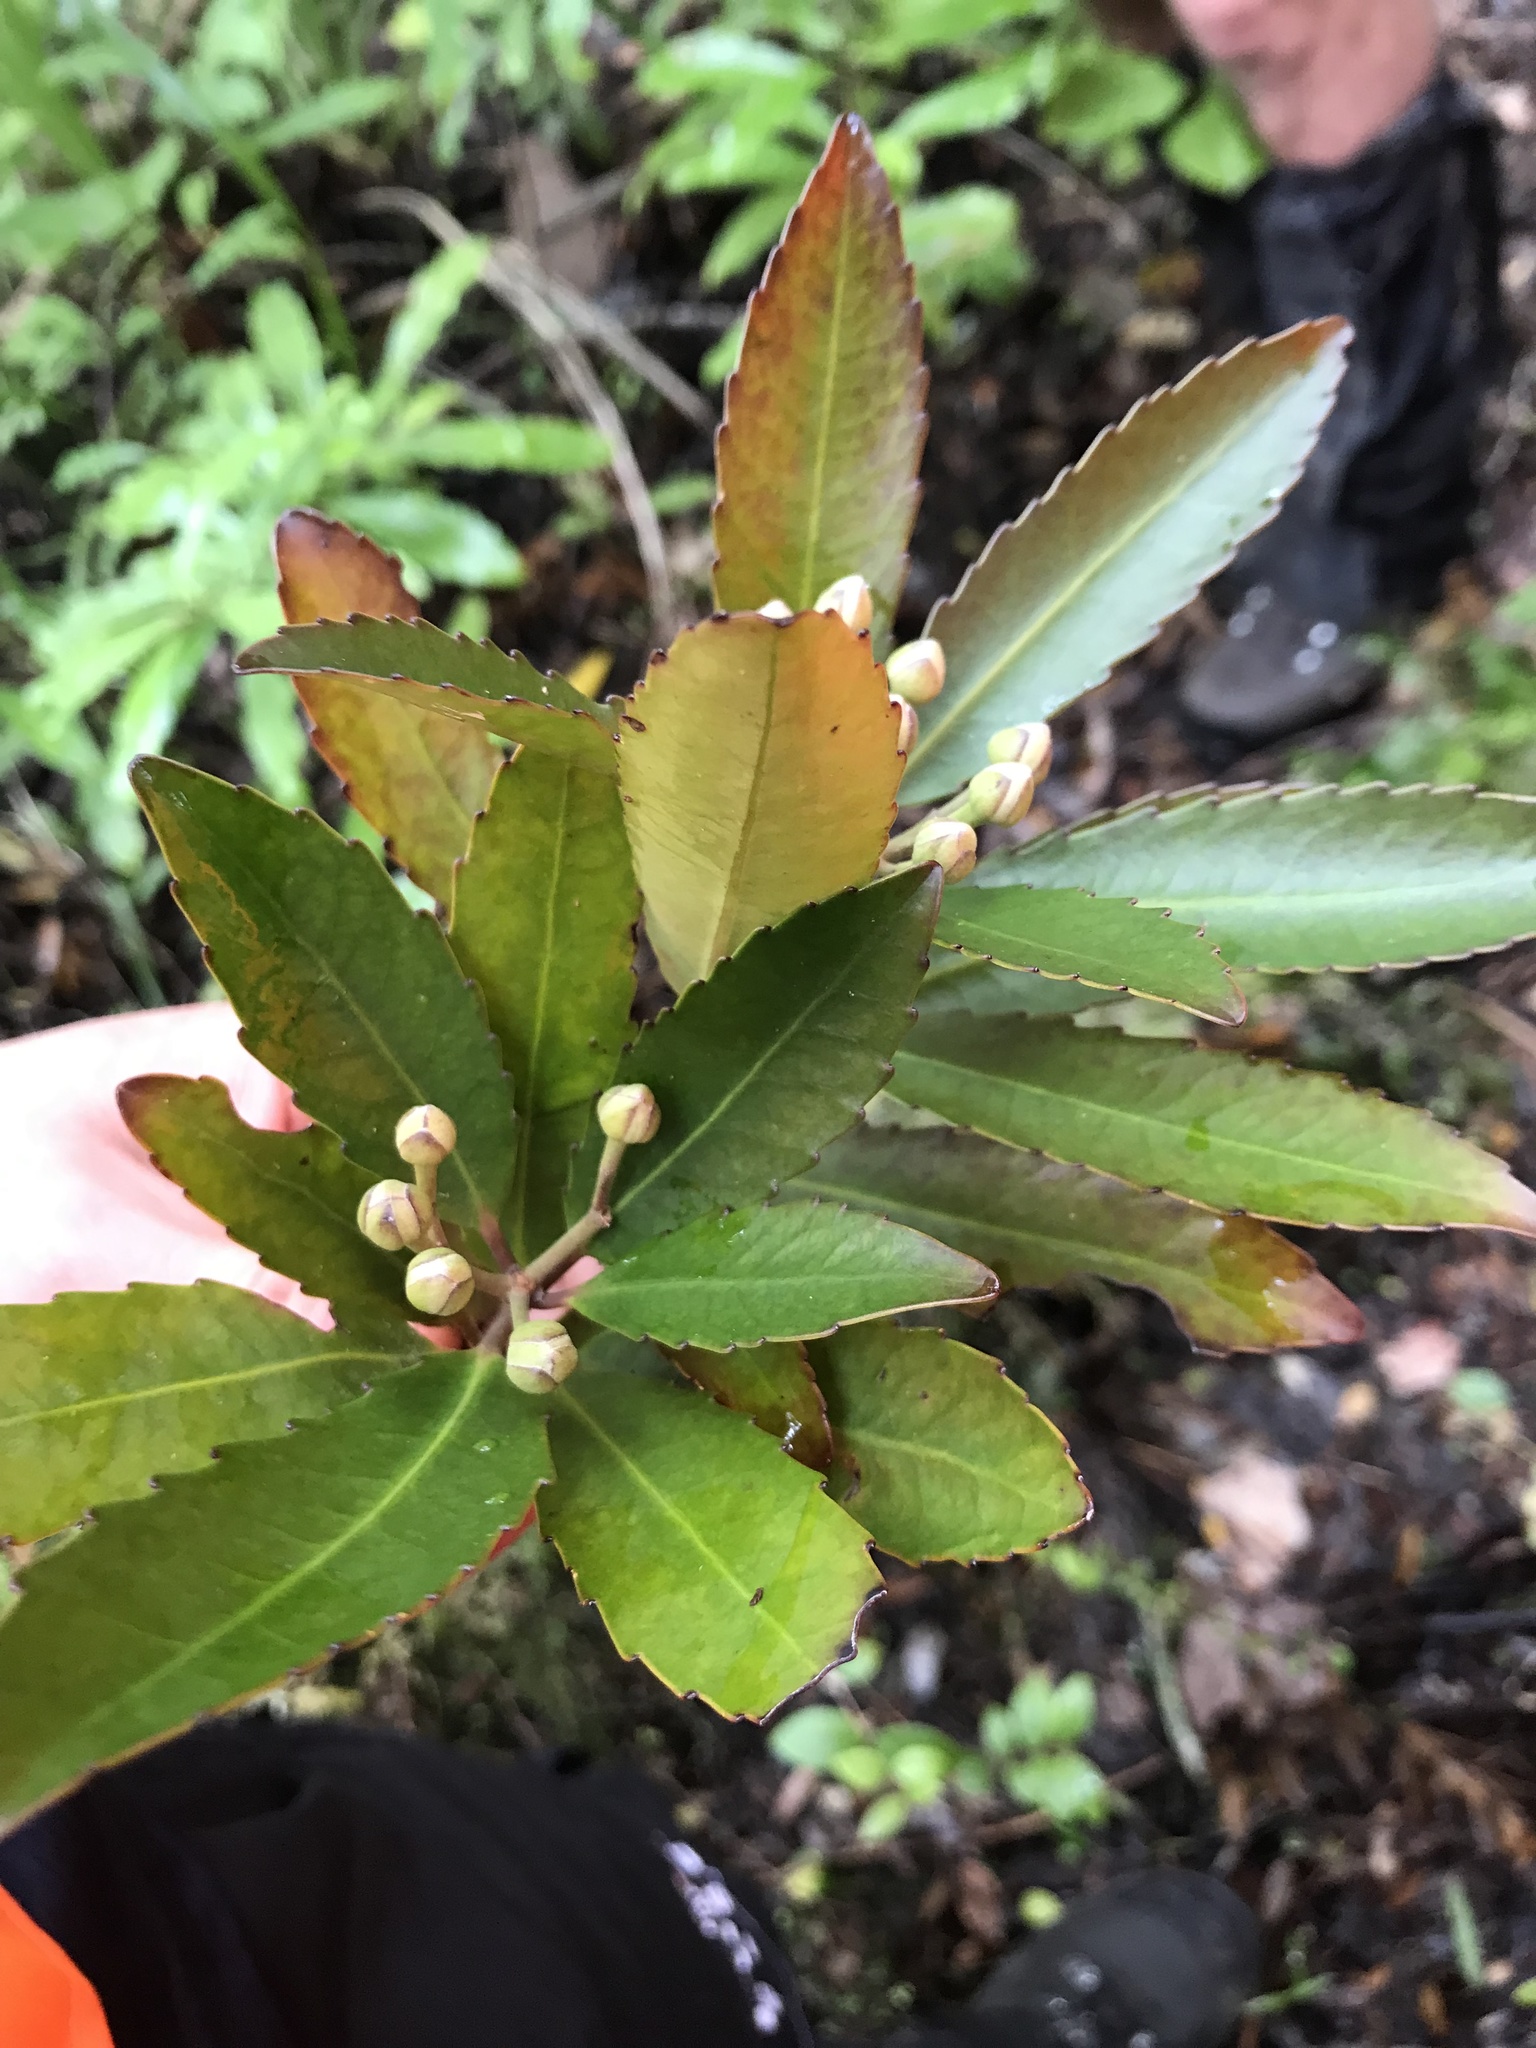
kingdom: Plantae
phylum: Tracheophyta
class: Magnoliopsida
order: Crossosomatales
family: Ixerbaceae
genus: Ixerba
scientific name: Ixerba brexioides
